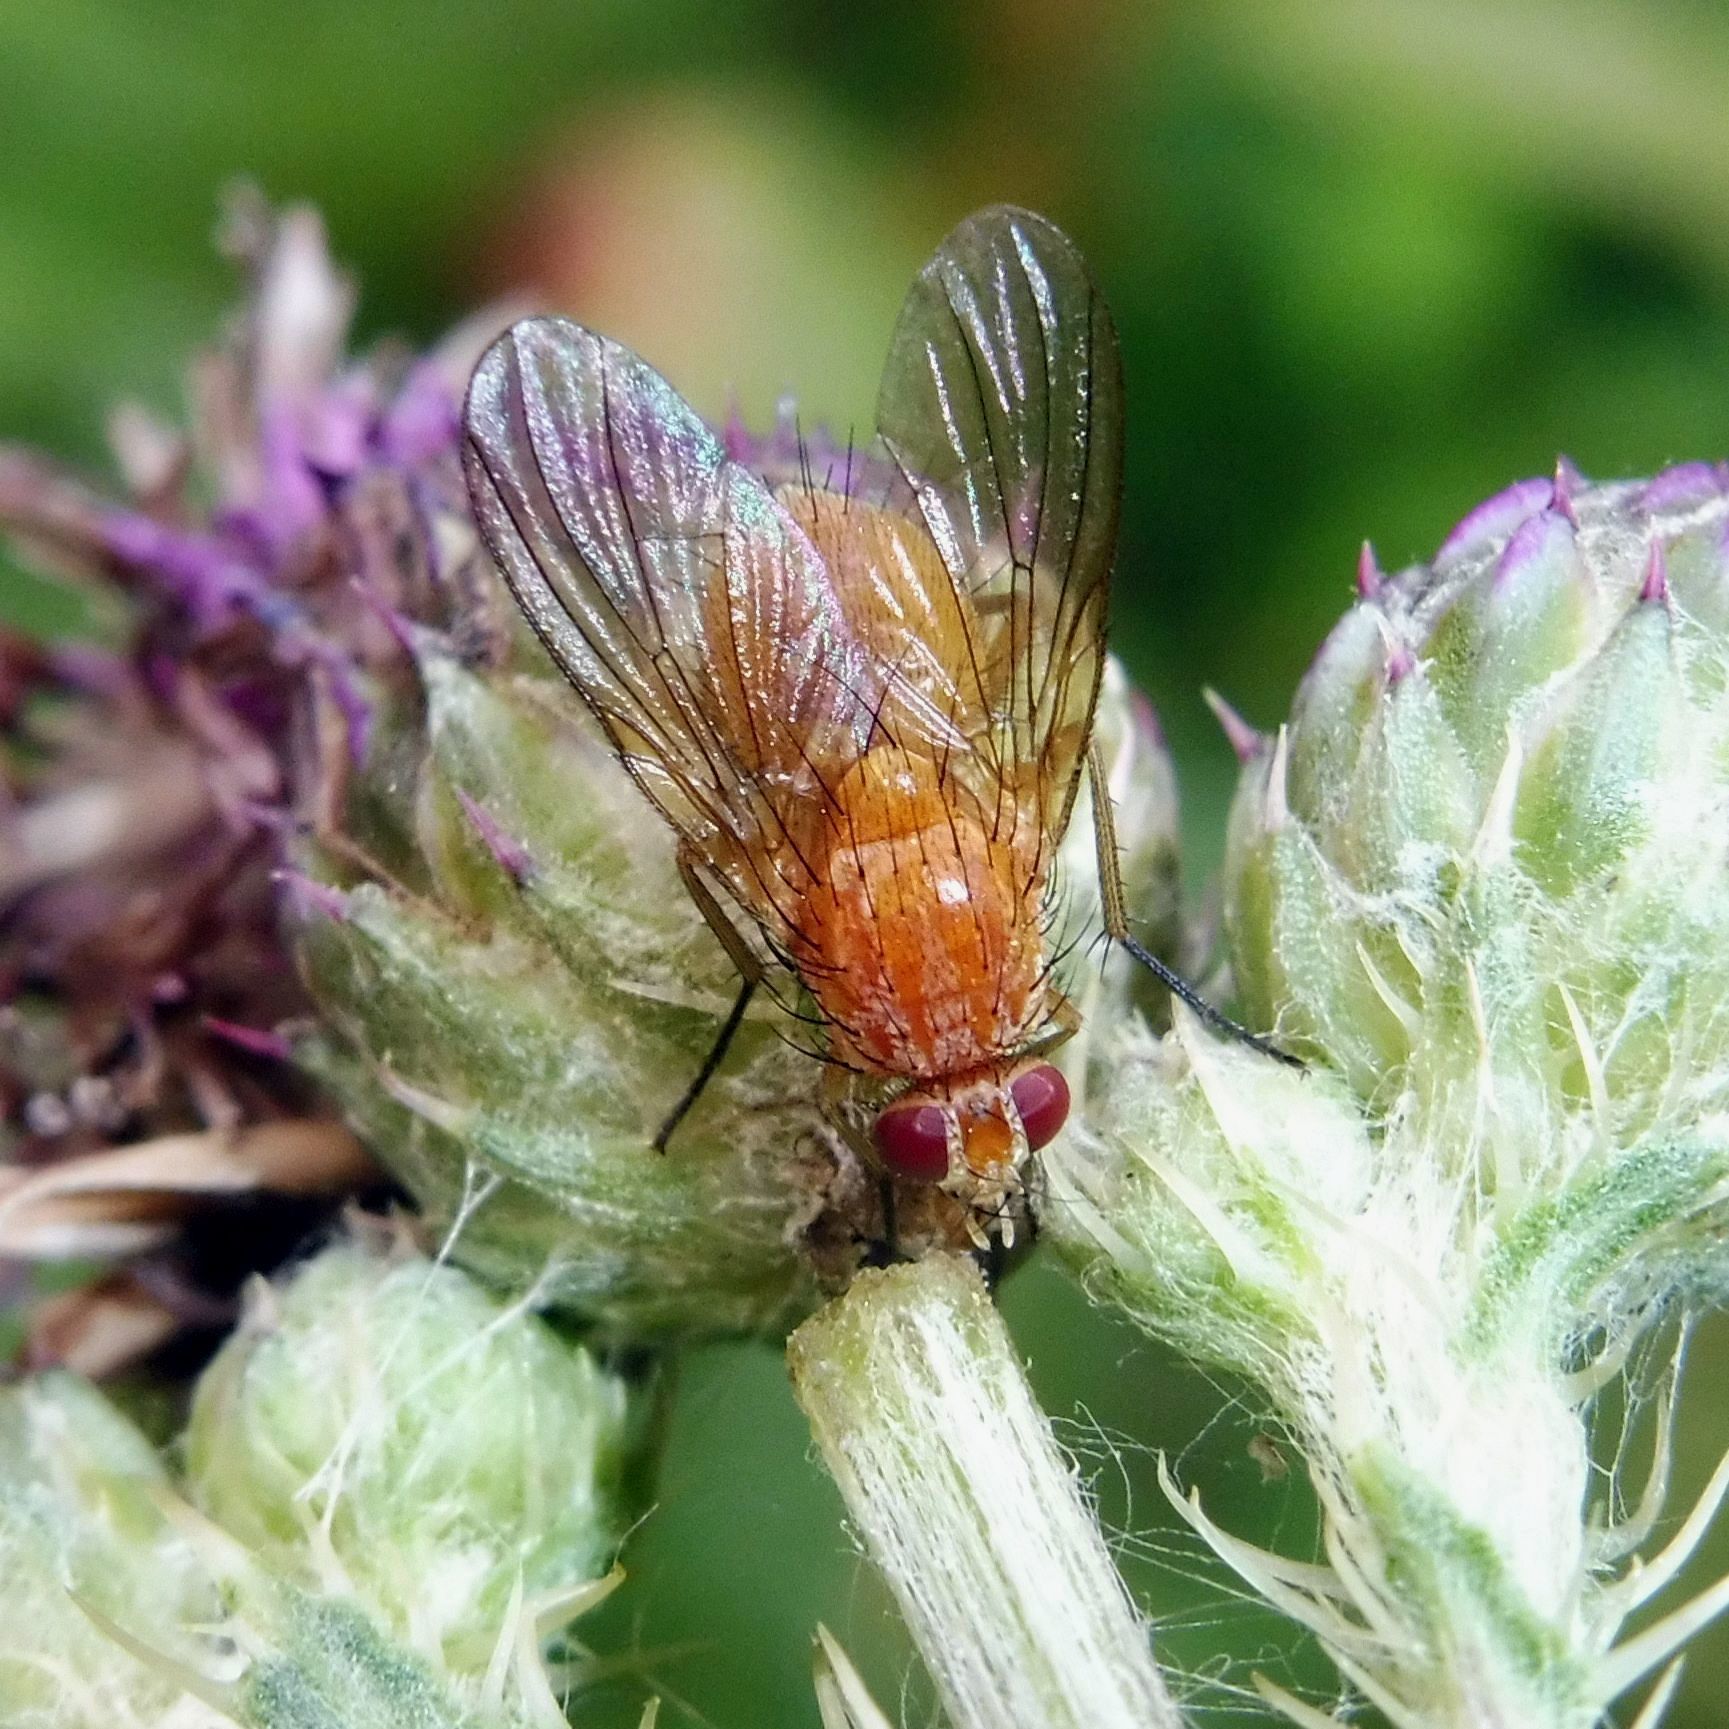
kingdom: Animalia
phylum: Arthropoda
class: Insecta
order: Diptera
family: Muscidae
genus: Phaonia
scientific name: Phaonia pallida
